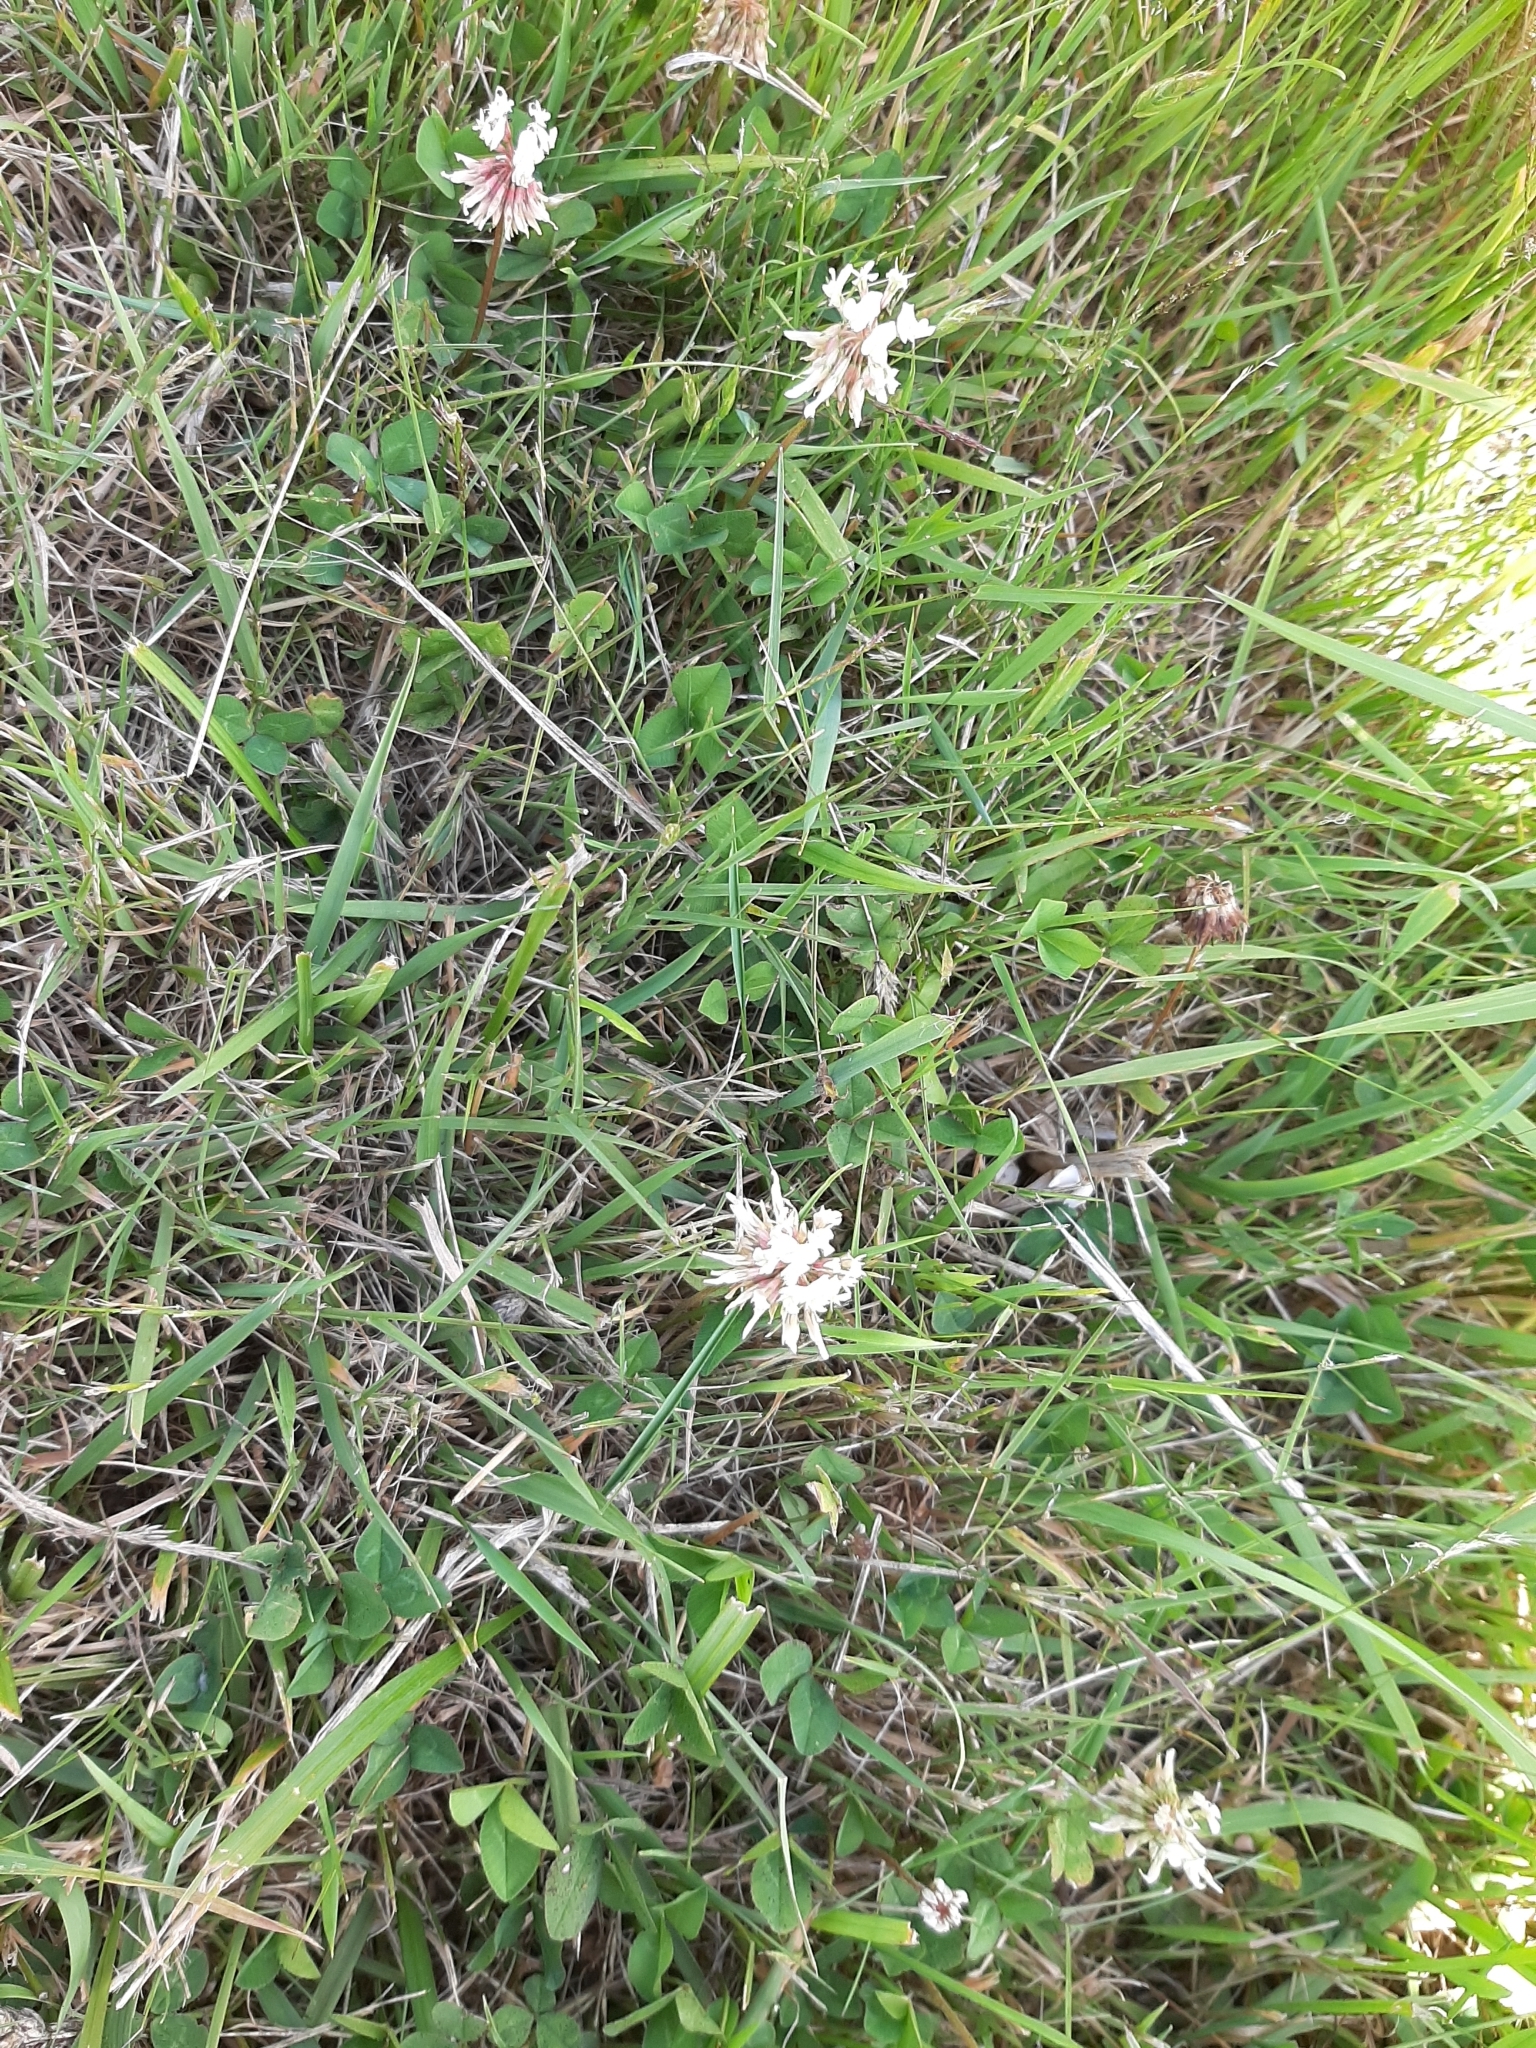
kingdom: Plantae
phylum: Tracheophyta
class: Magnoliopsida
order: Fabales
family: Fabaceae
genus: Trifolium
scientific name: Trifolium repens
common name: White clover
